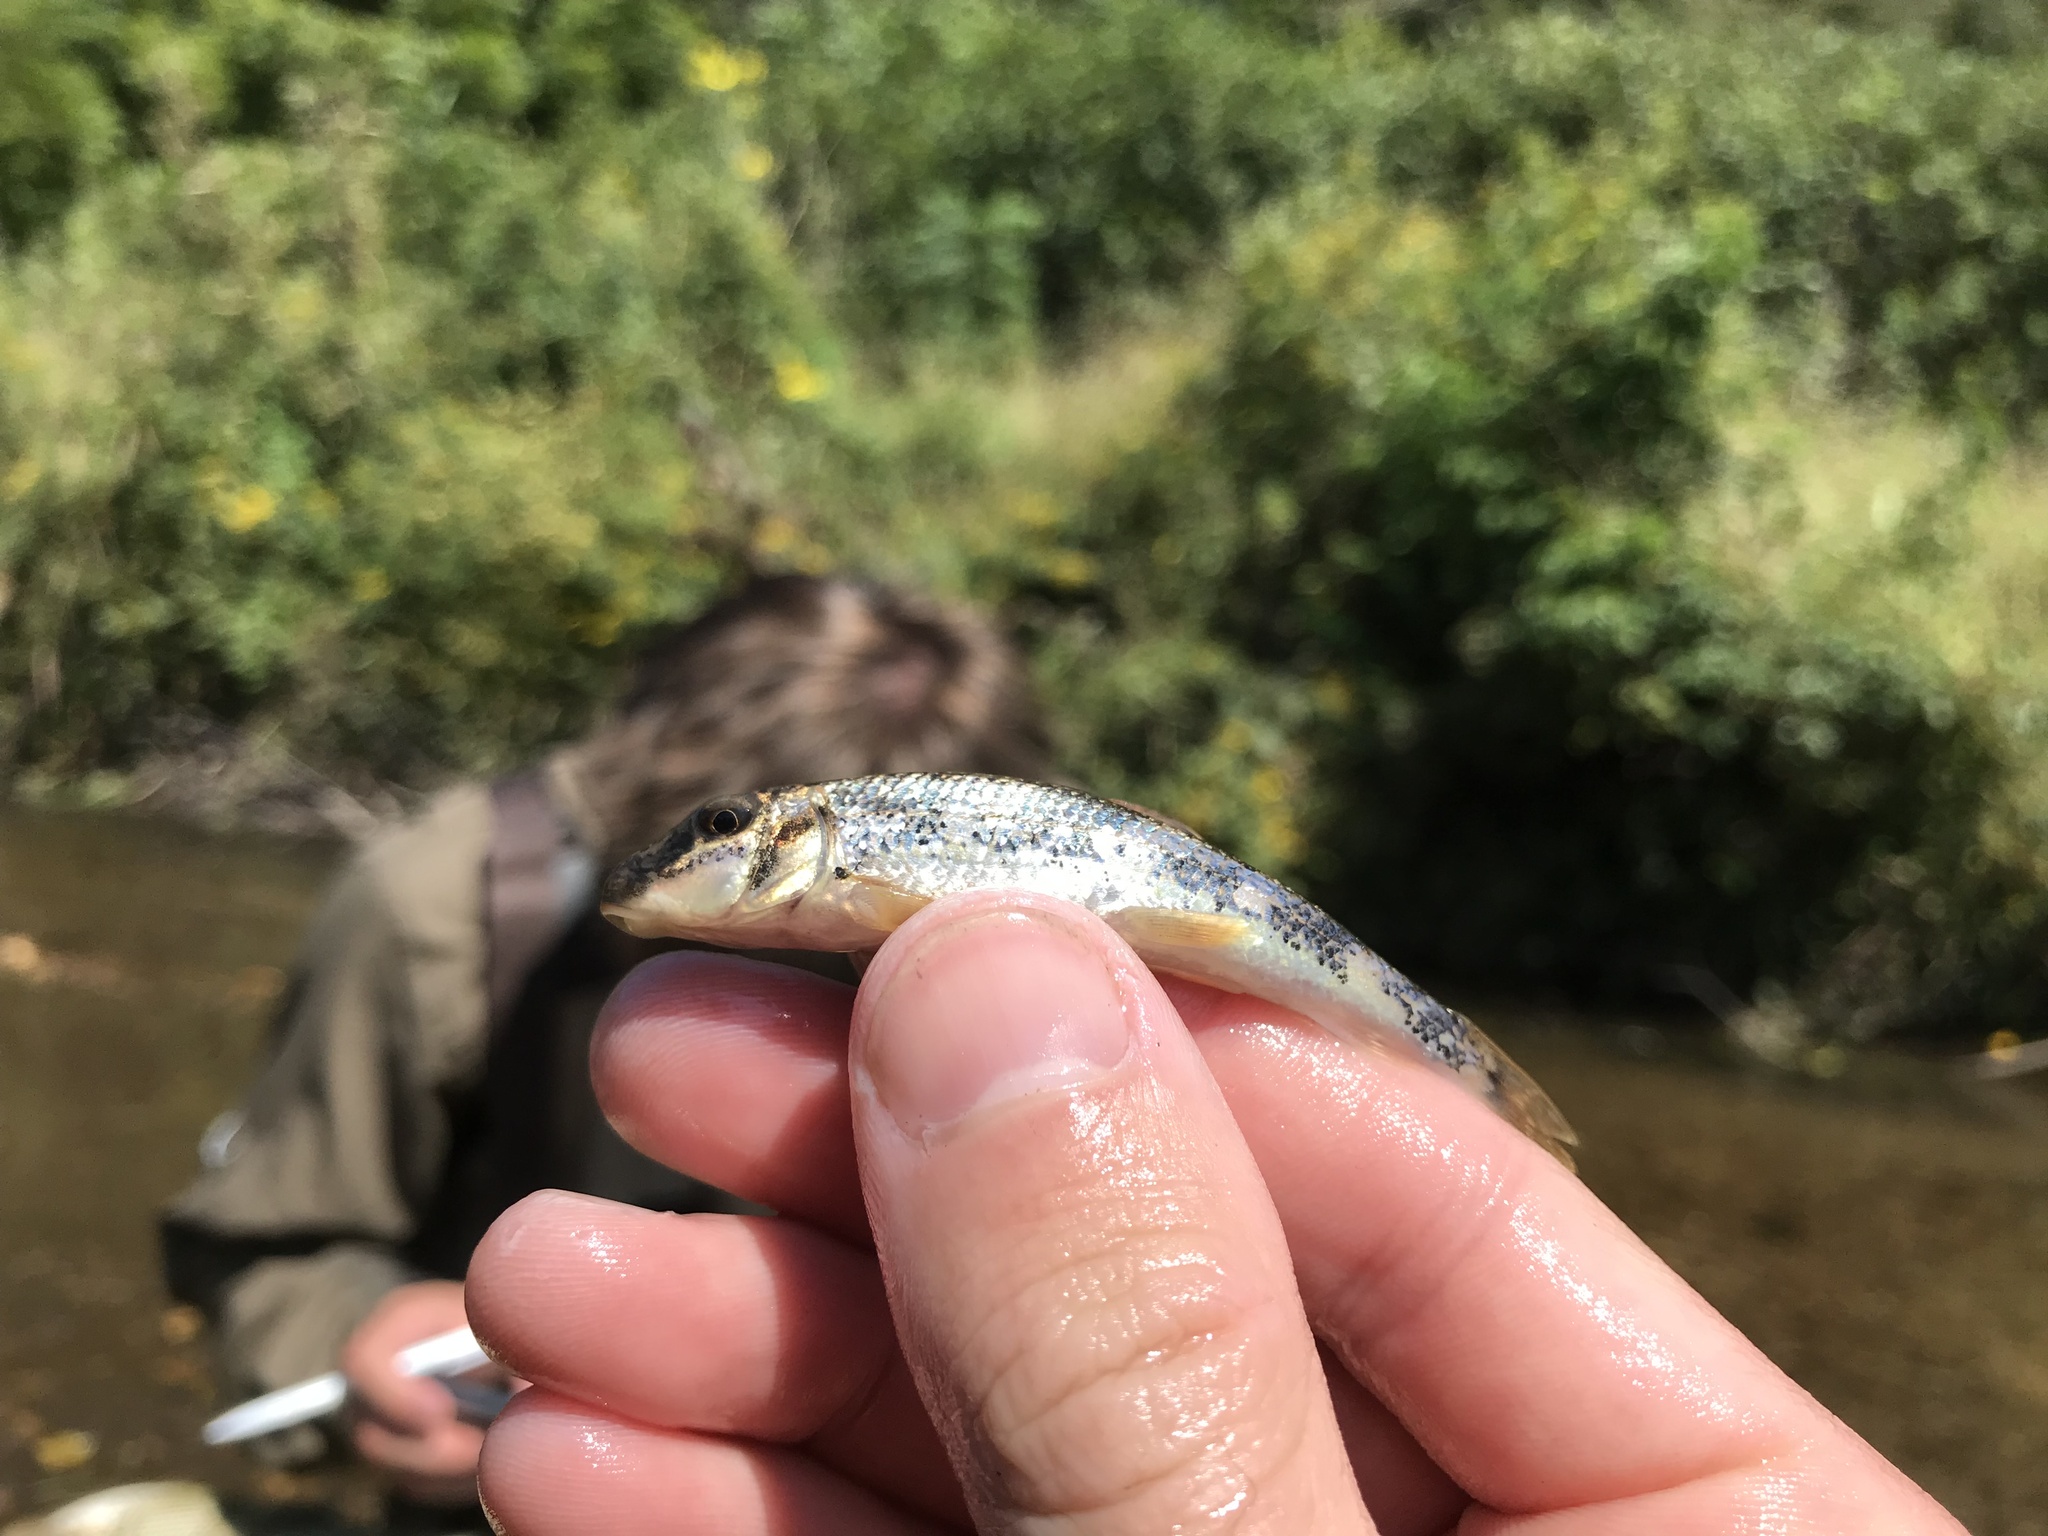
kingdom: Animalia
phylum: Chordata
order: Cypriniformes
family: Catostomidae
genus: Hypentelium
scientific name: Hypentelium nigricans
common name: Northern hog sucker
